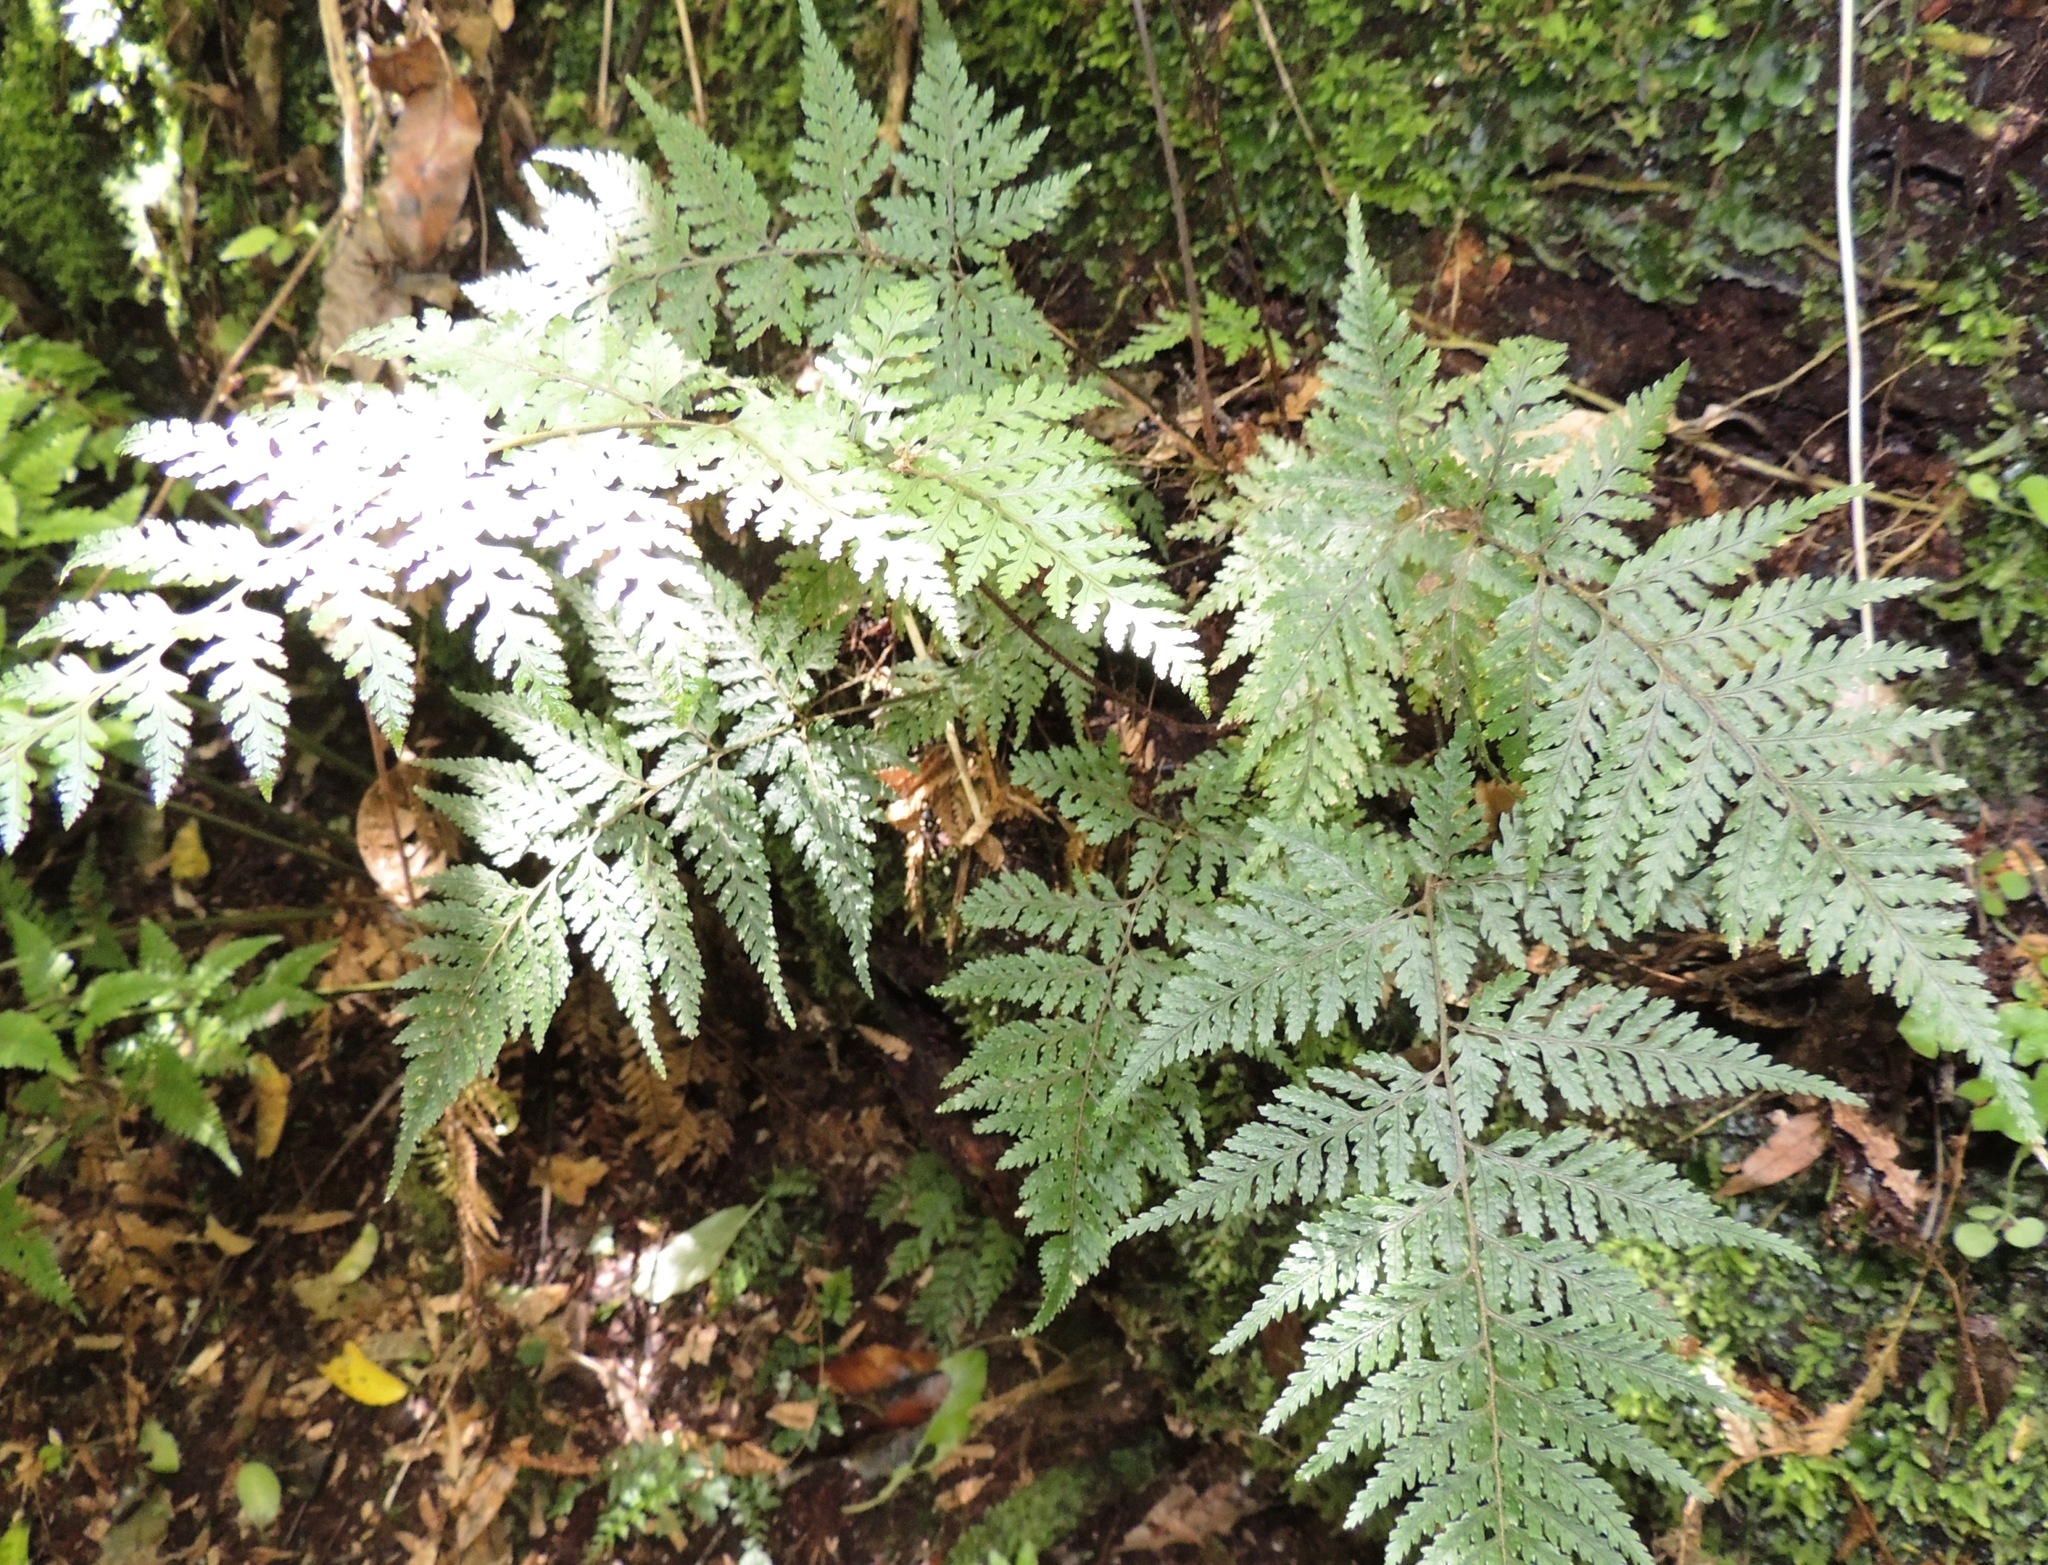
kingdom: Plantae
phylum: Tracheophyta
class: Polypodiopsida
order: Polypodiales
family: Dryopteridaceae
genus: Parapolystichum
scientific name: Parapolystichum glabellum
